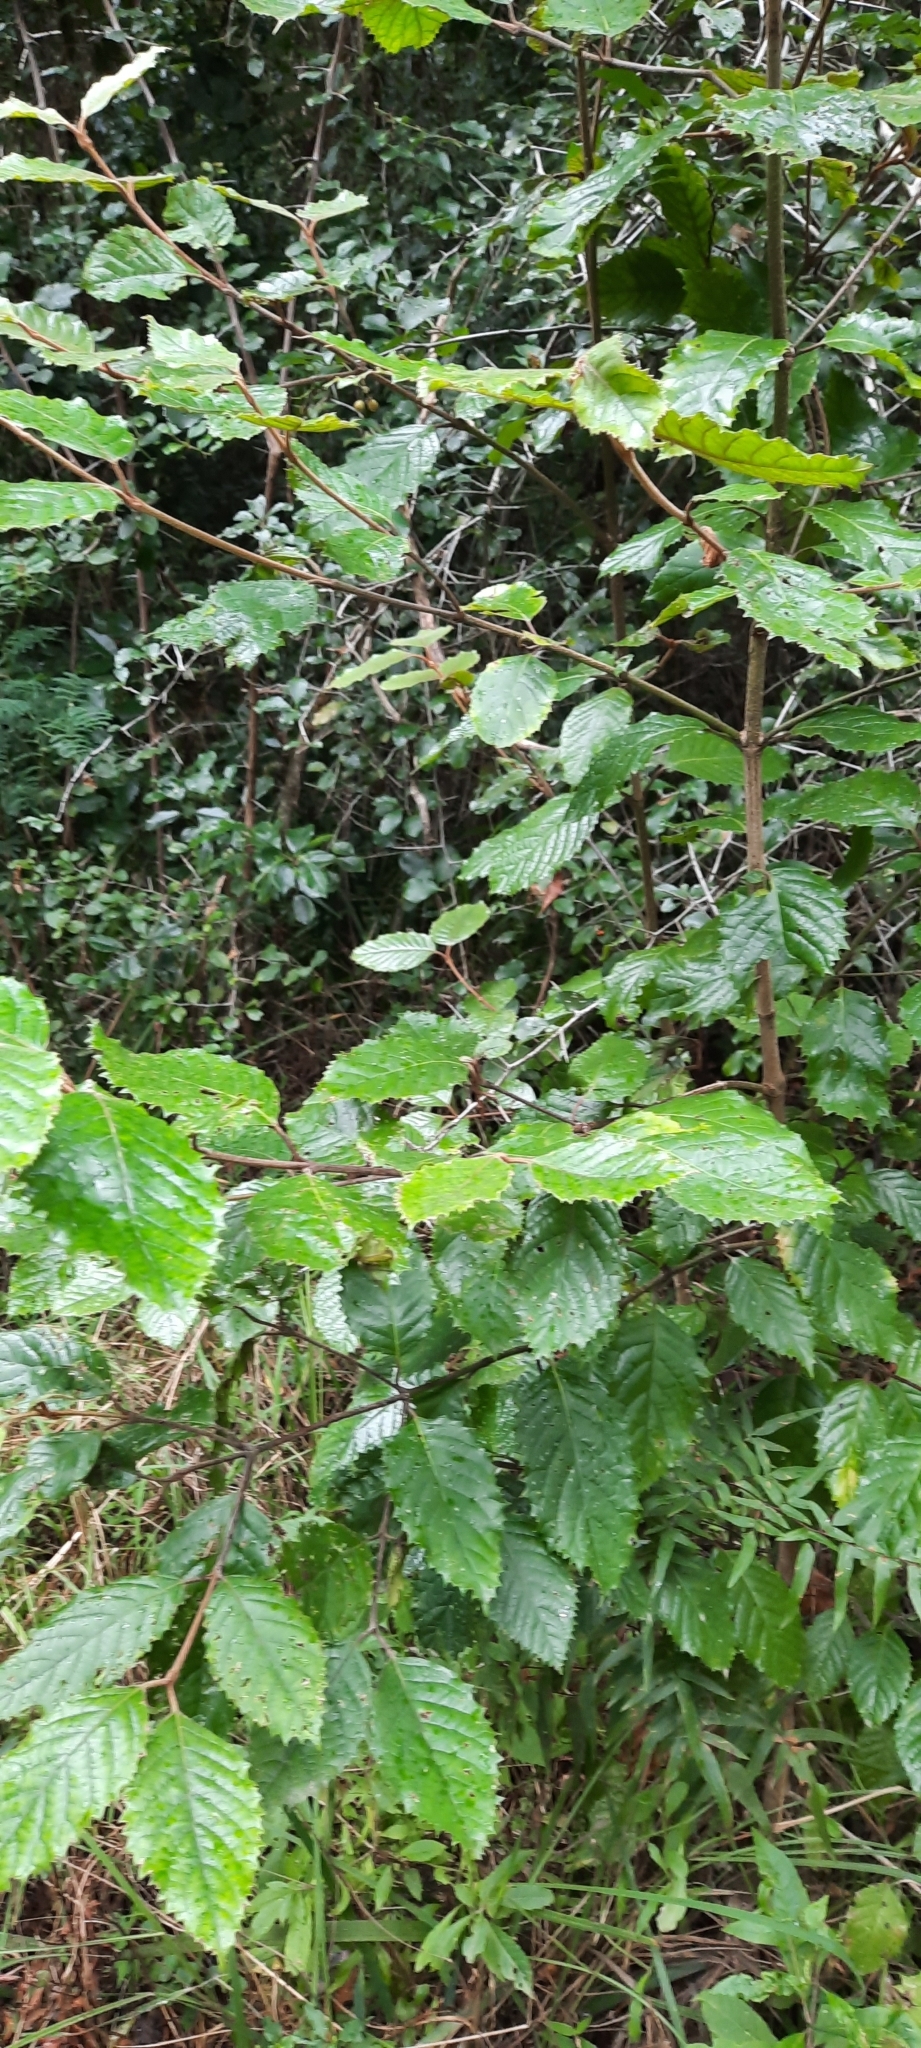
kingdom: Plantae
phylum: Tracheophyta
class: Magnoliopsida
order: Cornales
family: Curtisiaceae
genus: Curtisia
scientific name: Curtisia dentata
